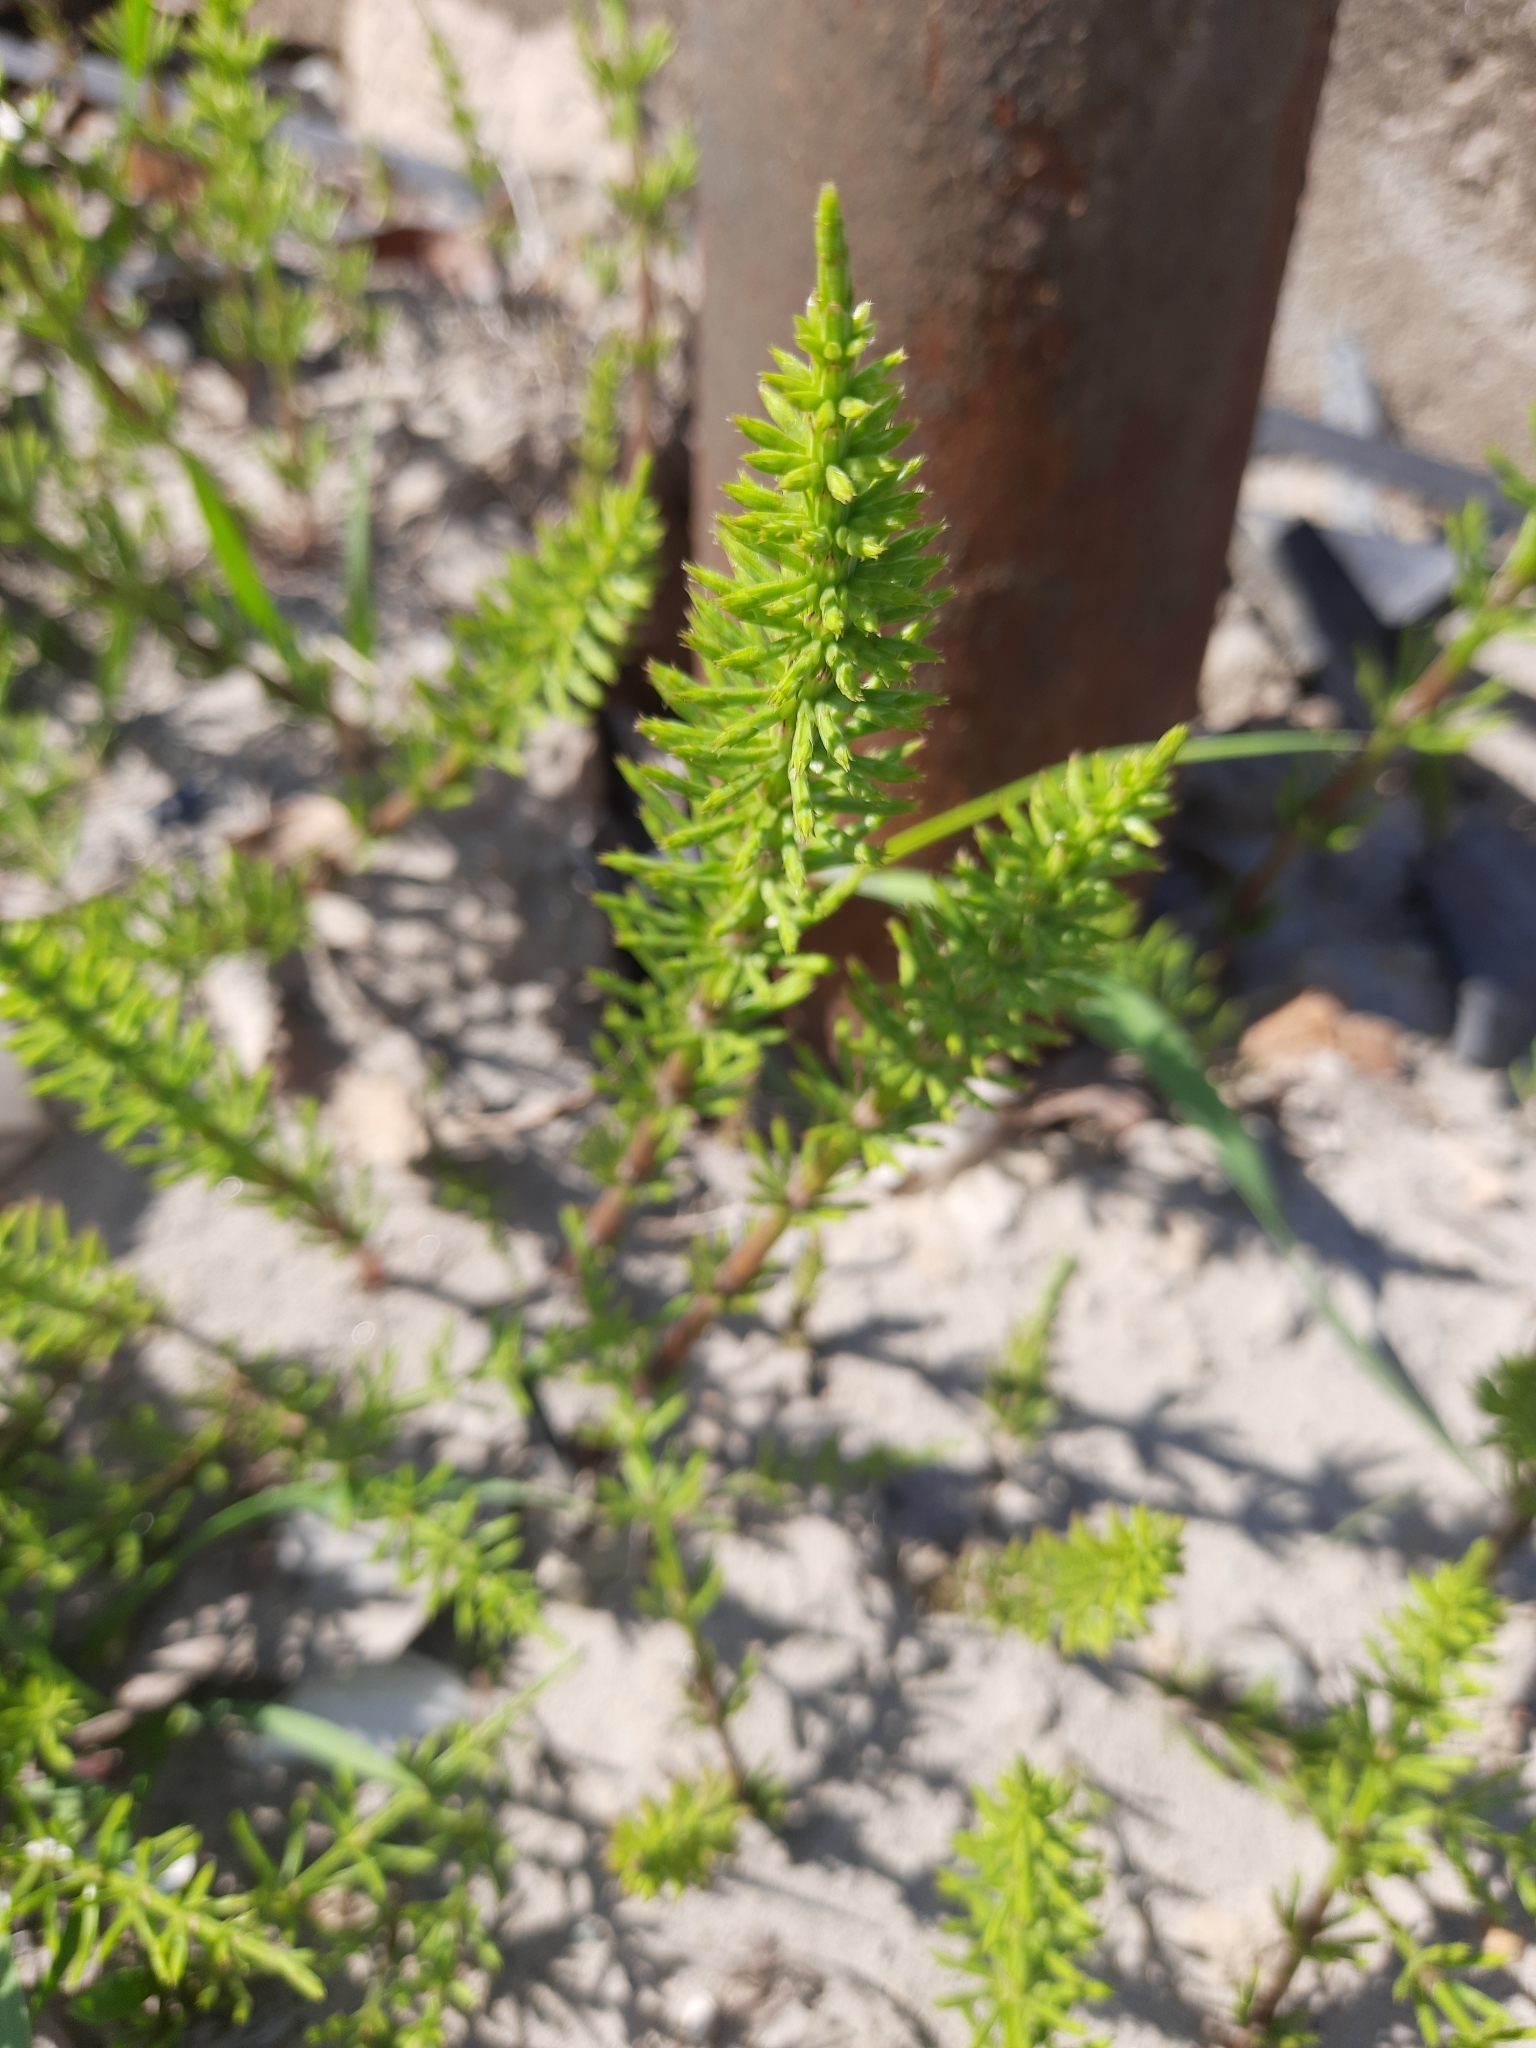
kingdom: Plantae
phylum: Tracheophyta
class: Polypodiopsida
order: Equisetales
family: Equisetaceae
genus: Equisetum
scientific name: Equisetum arvense
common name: Field horsetail
